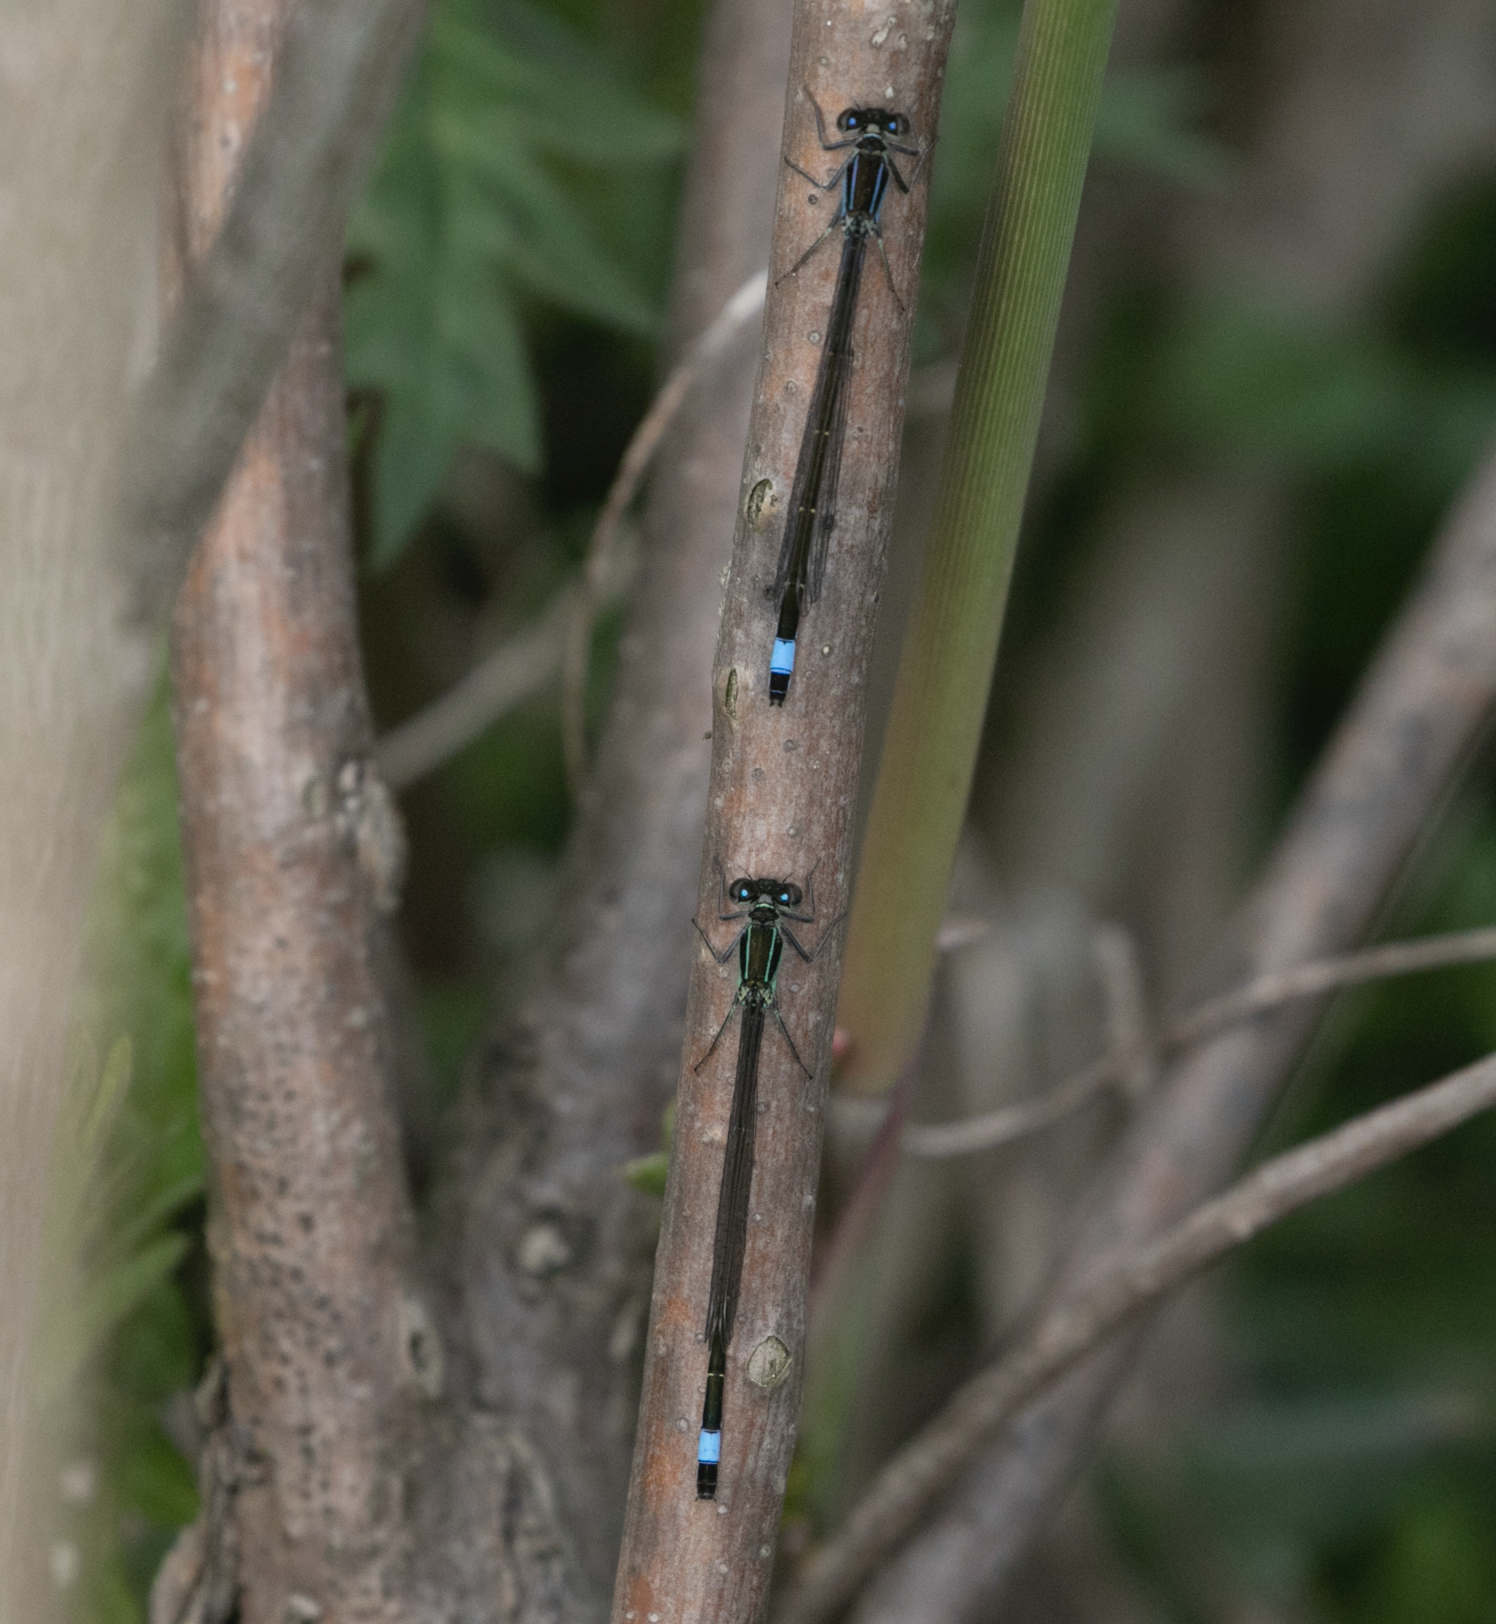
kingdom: Animalia
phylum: Arthropoda
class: Insecta
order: Odonata
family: Coenagrionidae
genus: Ischnura
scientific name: Ischnura elegans
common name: Blue-tailed damselfly
